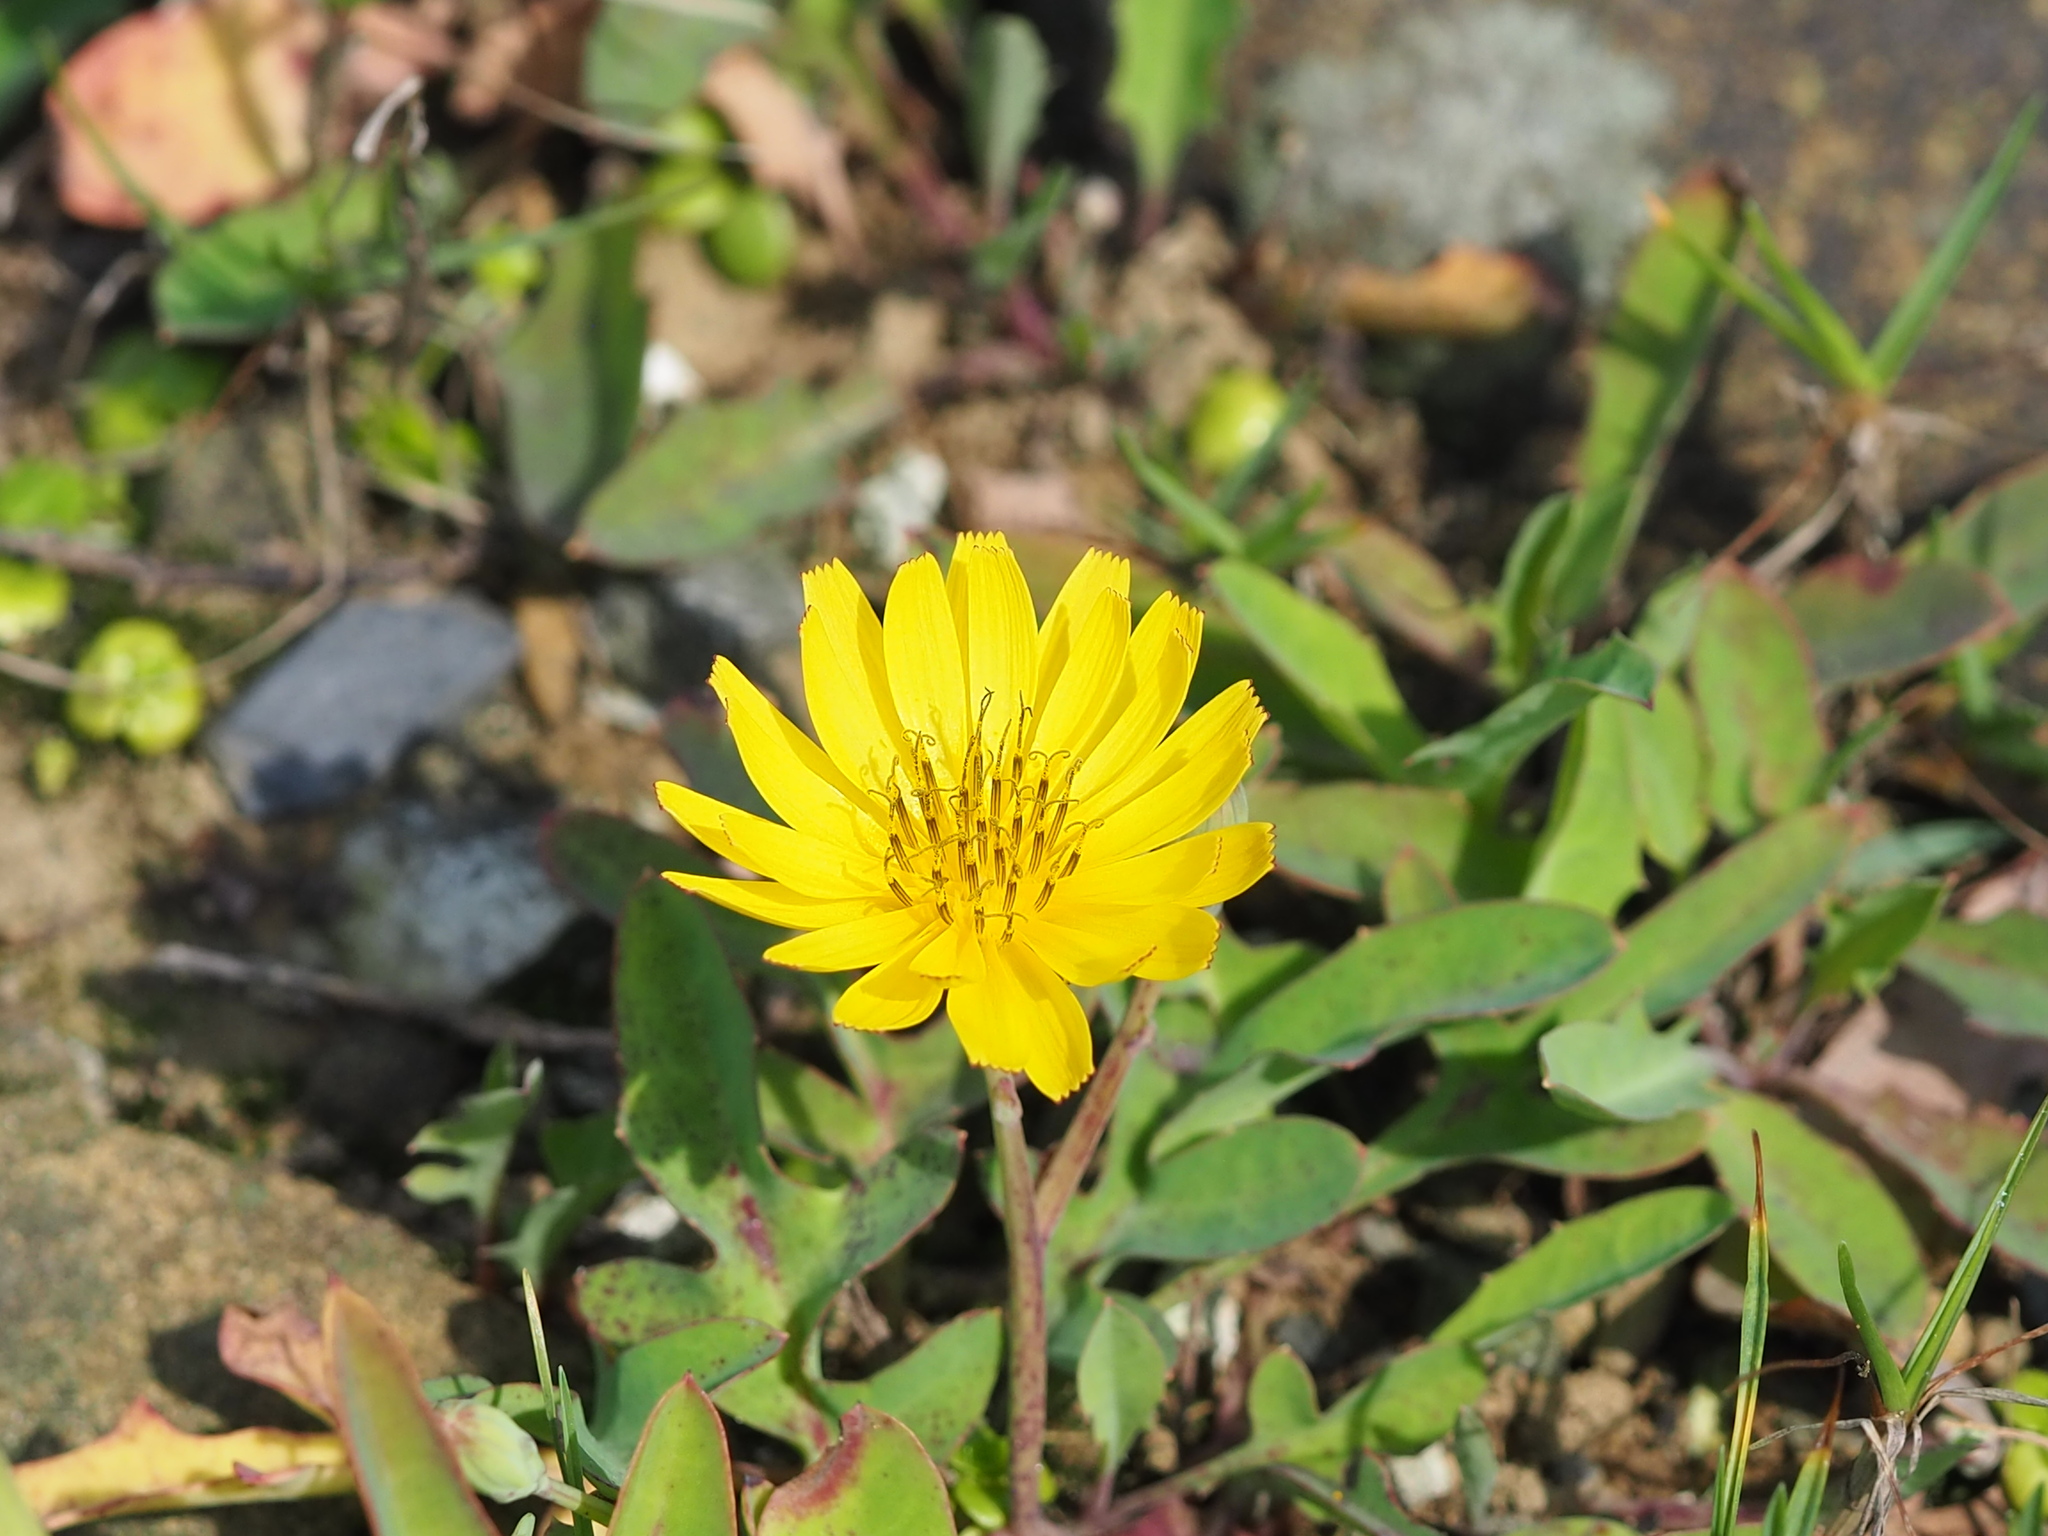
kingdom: Plantae
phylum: Tracheophyta
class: Magnoliopsida
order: Asterales
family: Asteraceae
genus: Ixeris
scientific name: Ixeris japonica
